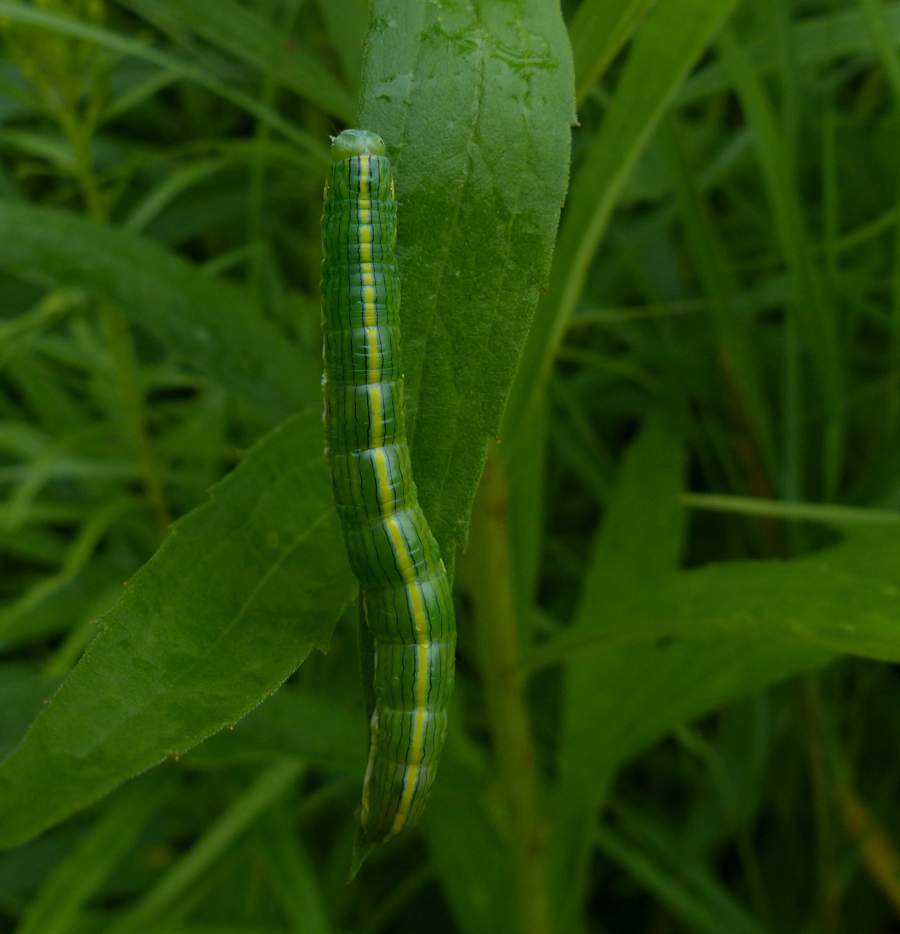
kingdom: Animalia
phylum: Arthropoda
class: Insecta
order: Lepidoptera
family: Noctuidae
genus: Cucullia
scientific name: Cucullia asteroides
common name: Asteroid moth
